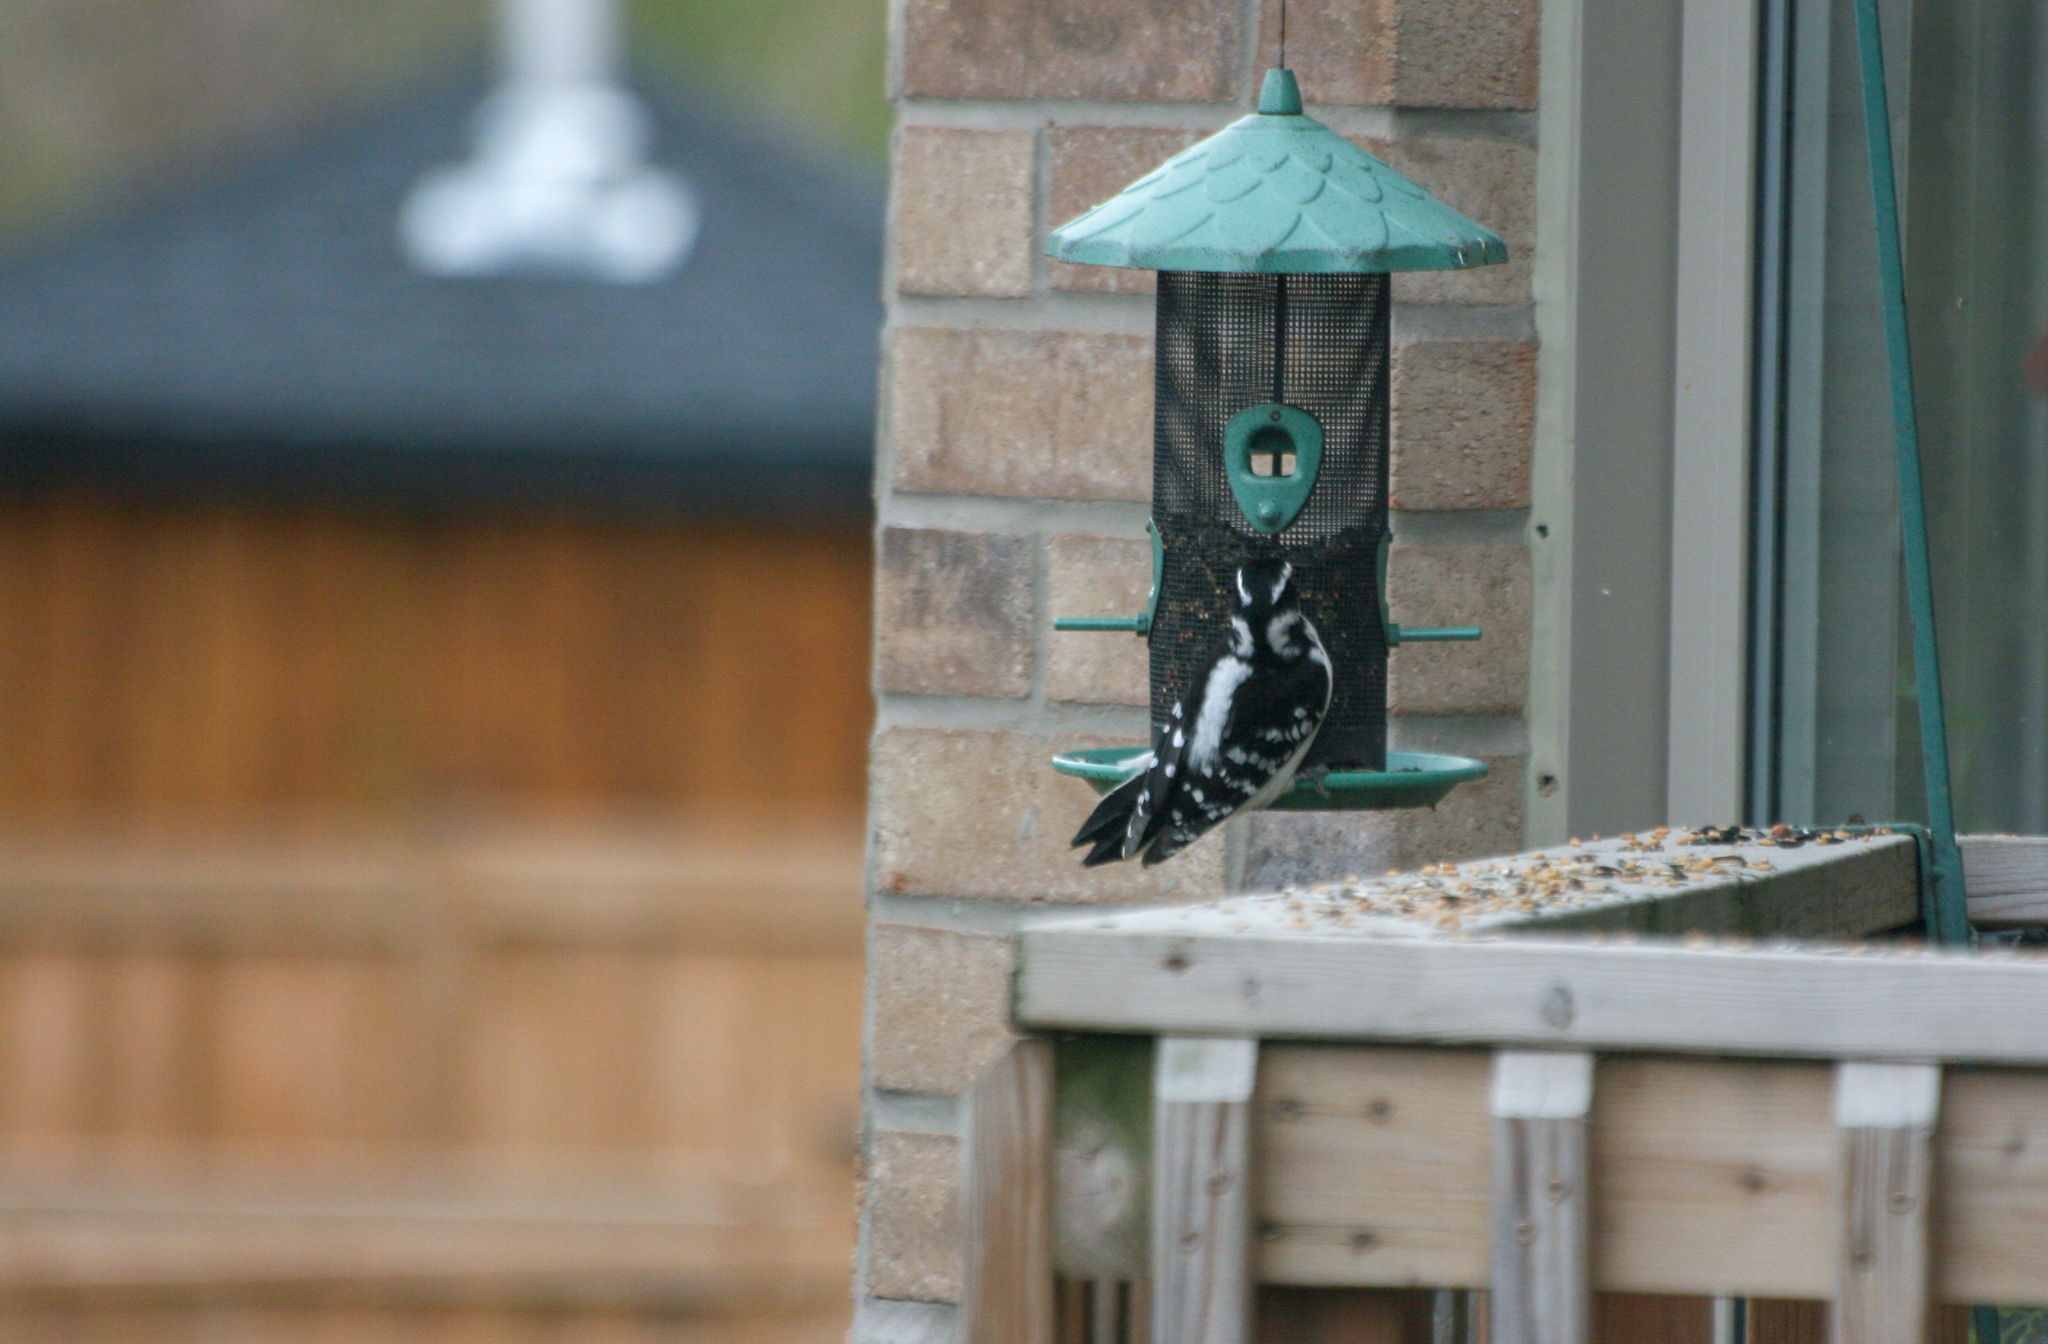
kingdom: Animalia
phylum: Chordata
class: Aves
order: Piciformes
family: Picidae
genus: Leuconotopicus
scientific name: Leuconotopicus villosus
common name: Hairy woodpecker
